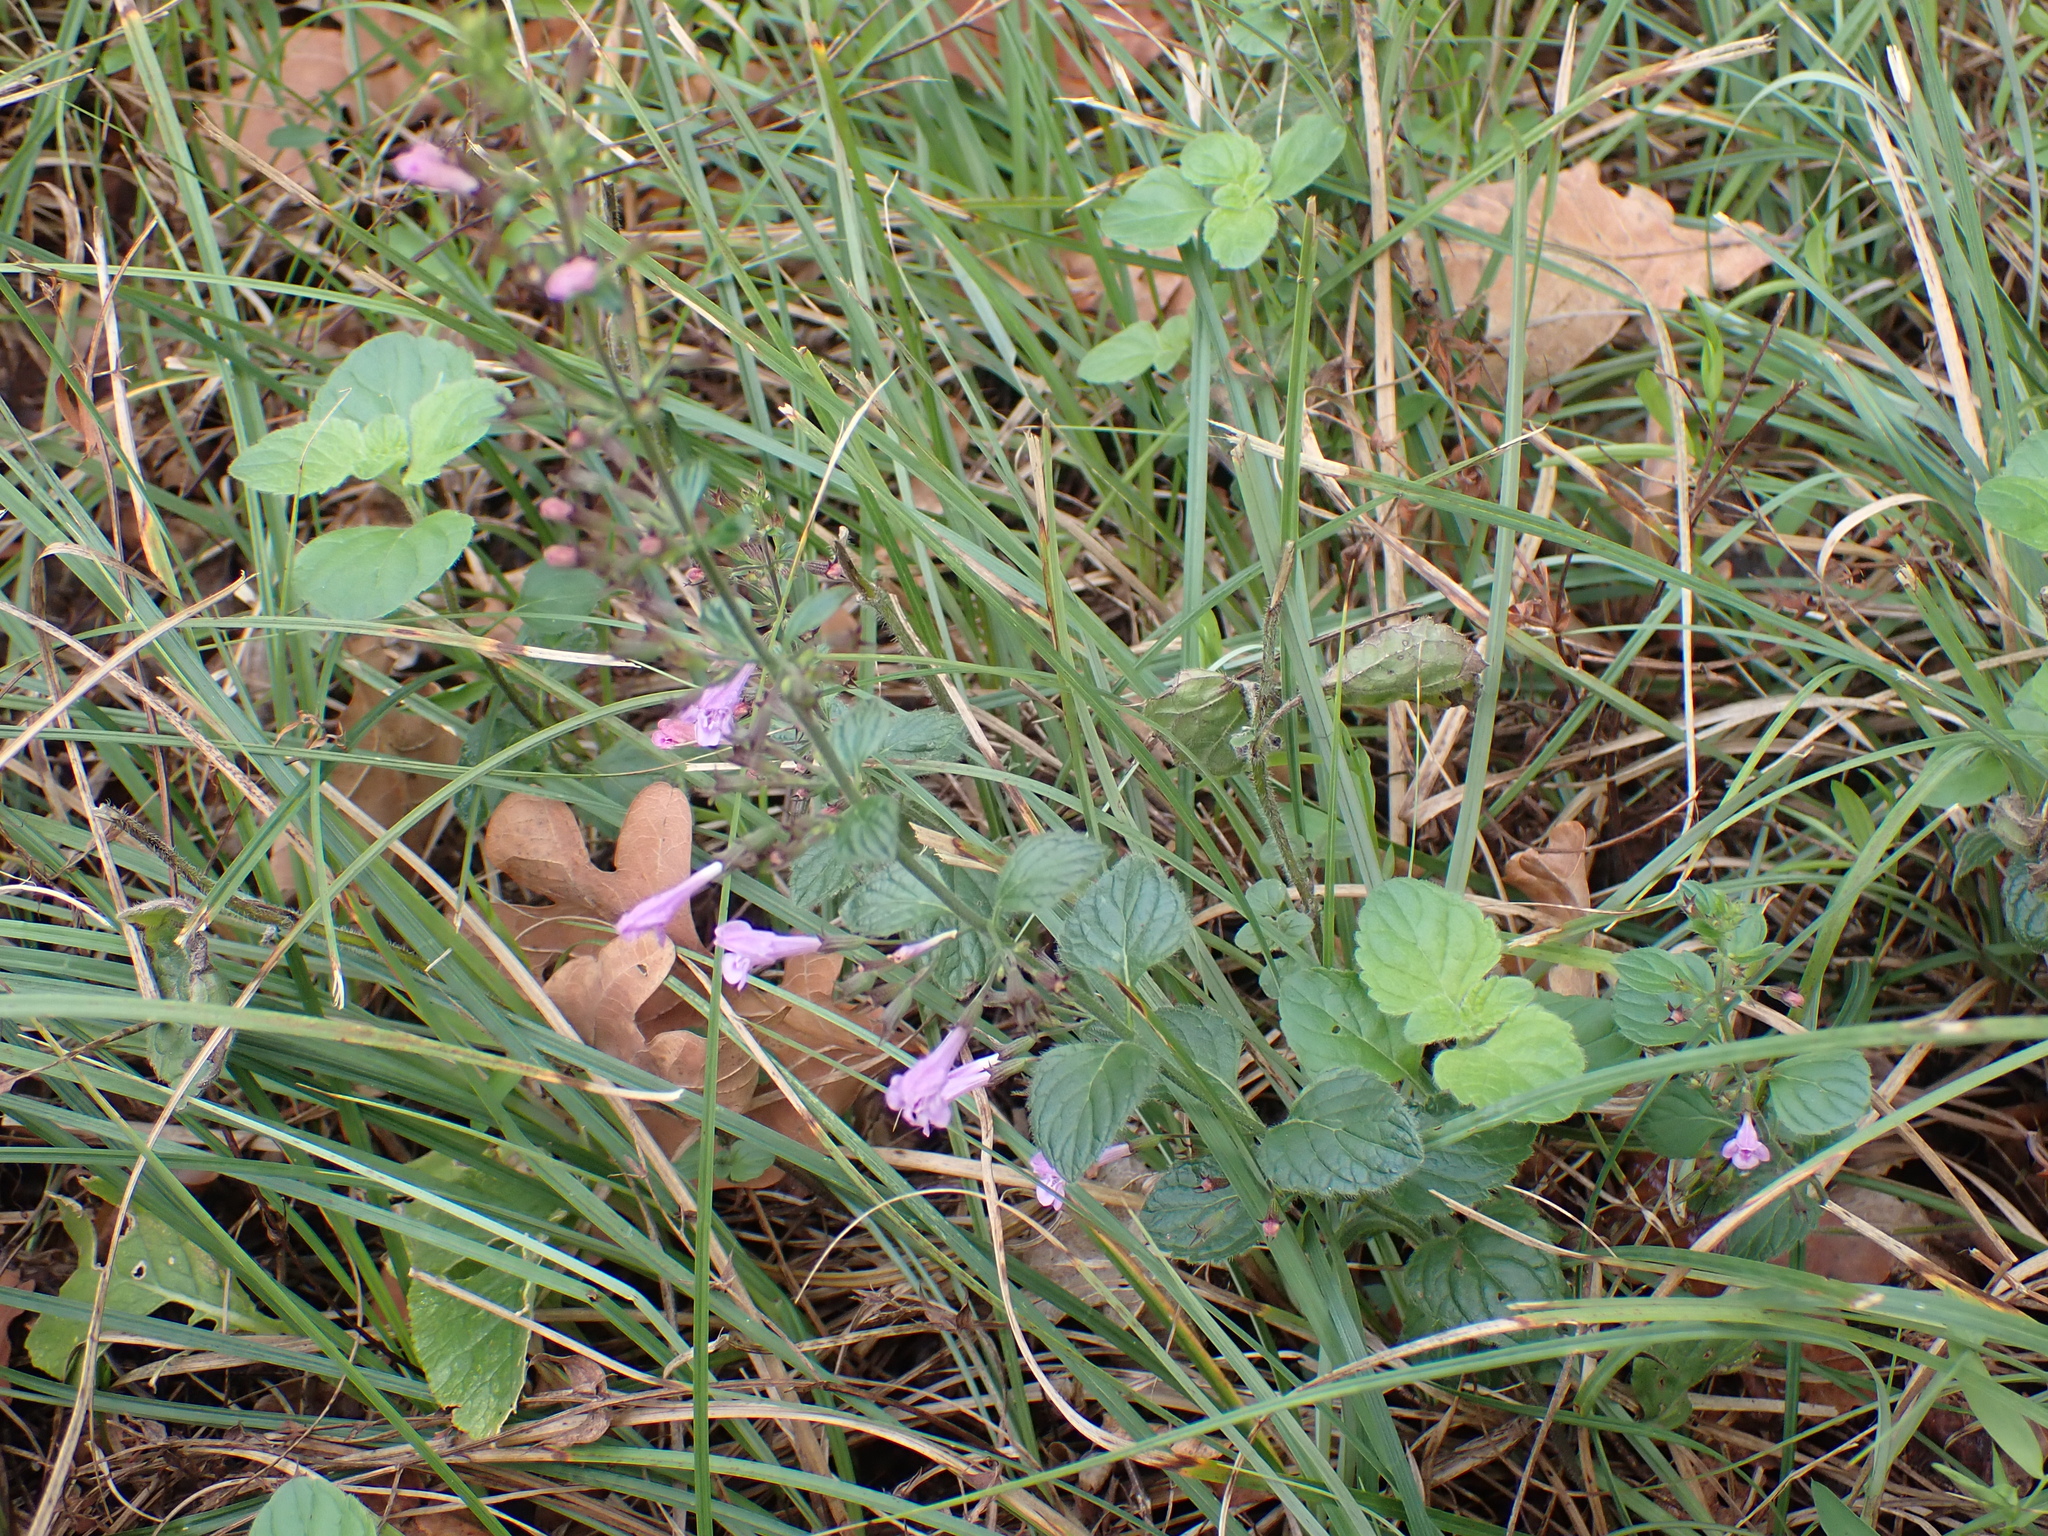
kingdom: Plantae
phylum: Tracheophyta
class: Magnoliopsida
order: Lamiales
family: Lamiaceae
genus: Clinopodium
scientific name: Clinopodium menthifolium
